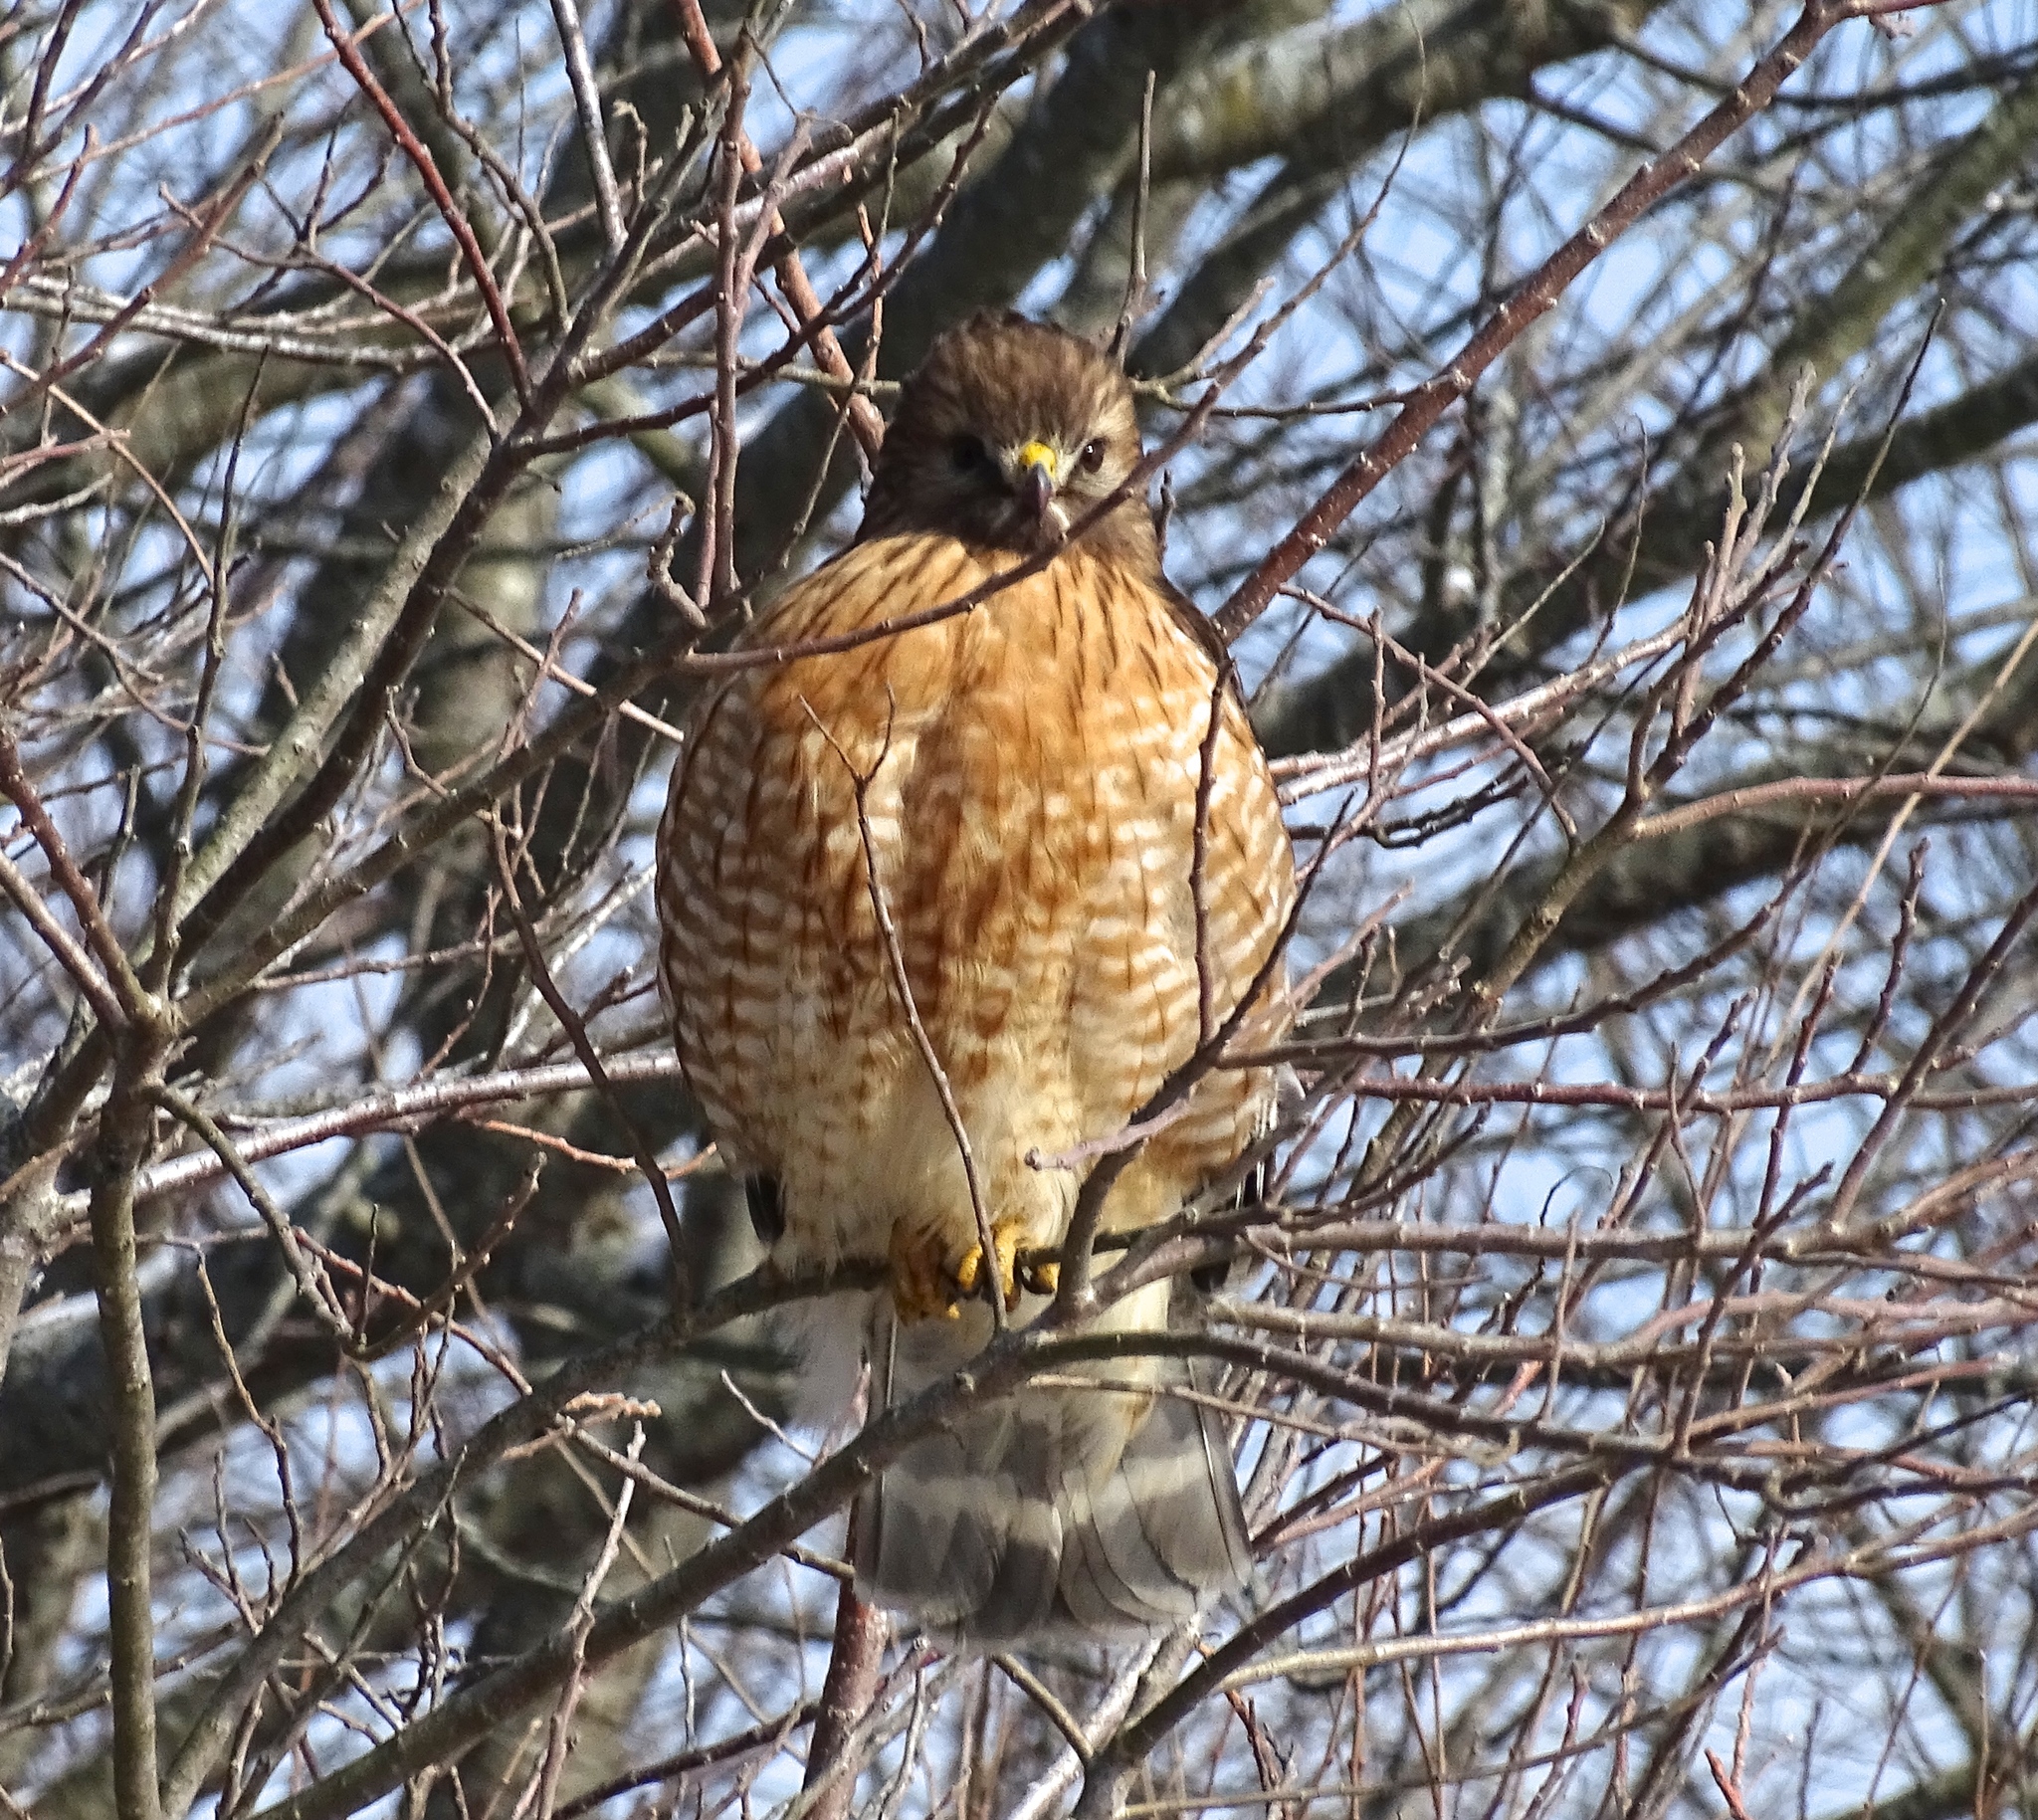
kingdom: Animalia
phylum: Chordata
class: Aves
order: Accipitriformes
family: Accipitridae
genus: Buteo
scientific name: Buteo lineatus
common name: Red-shouldered hawk
